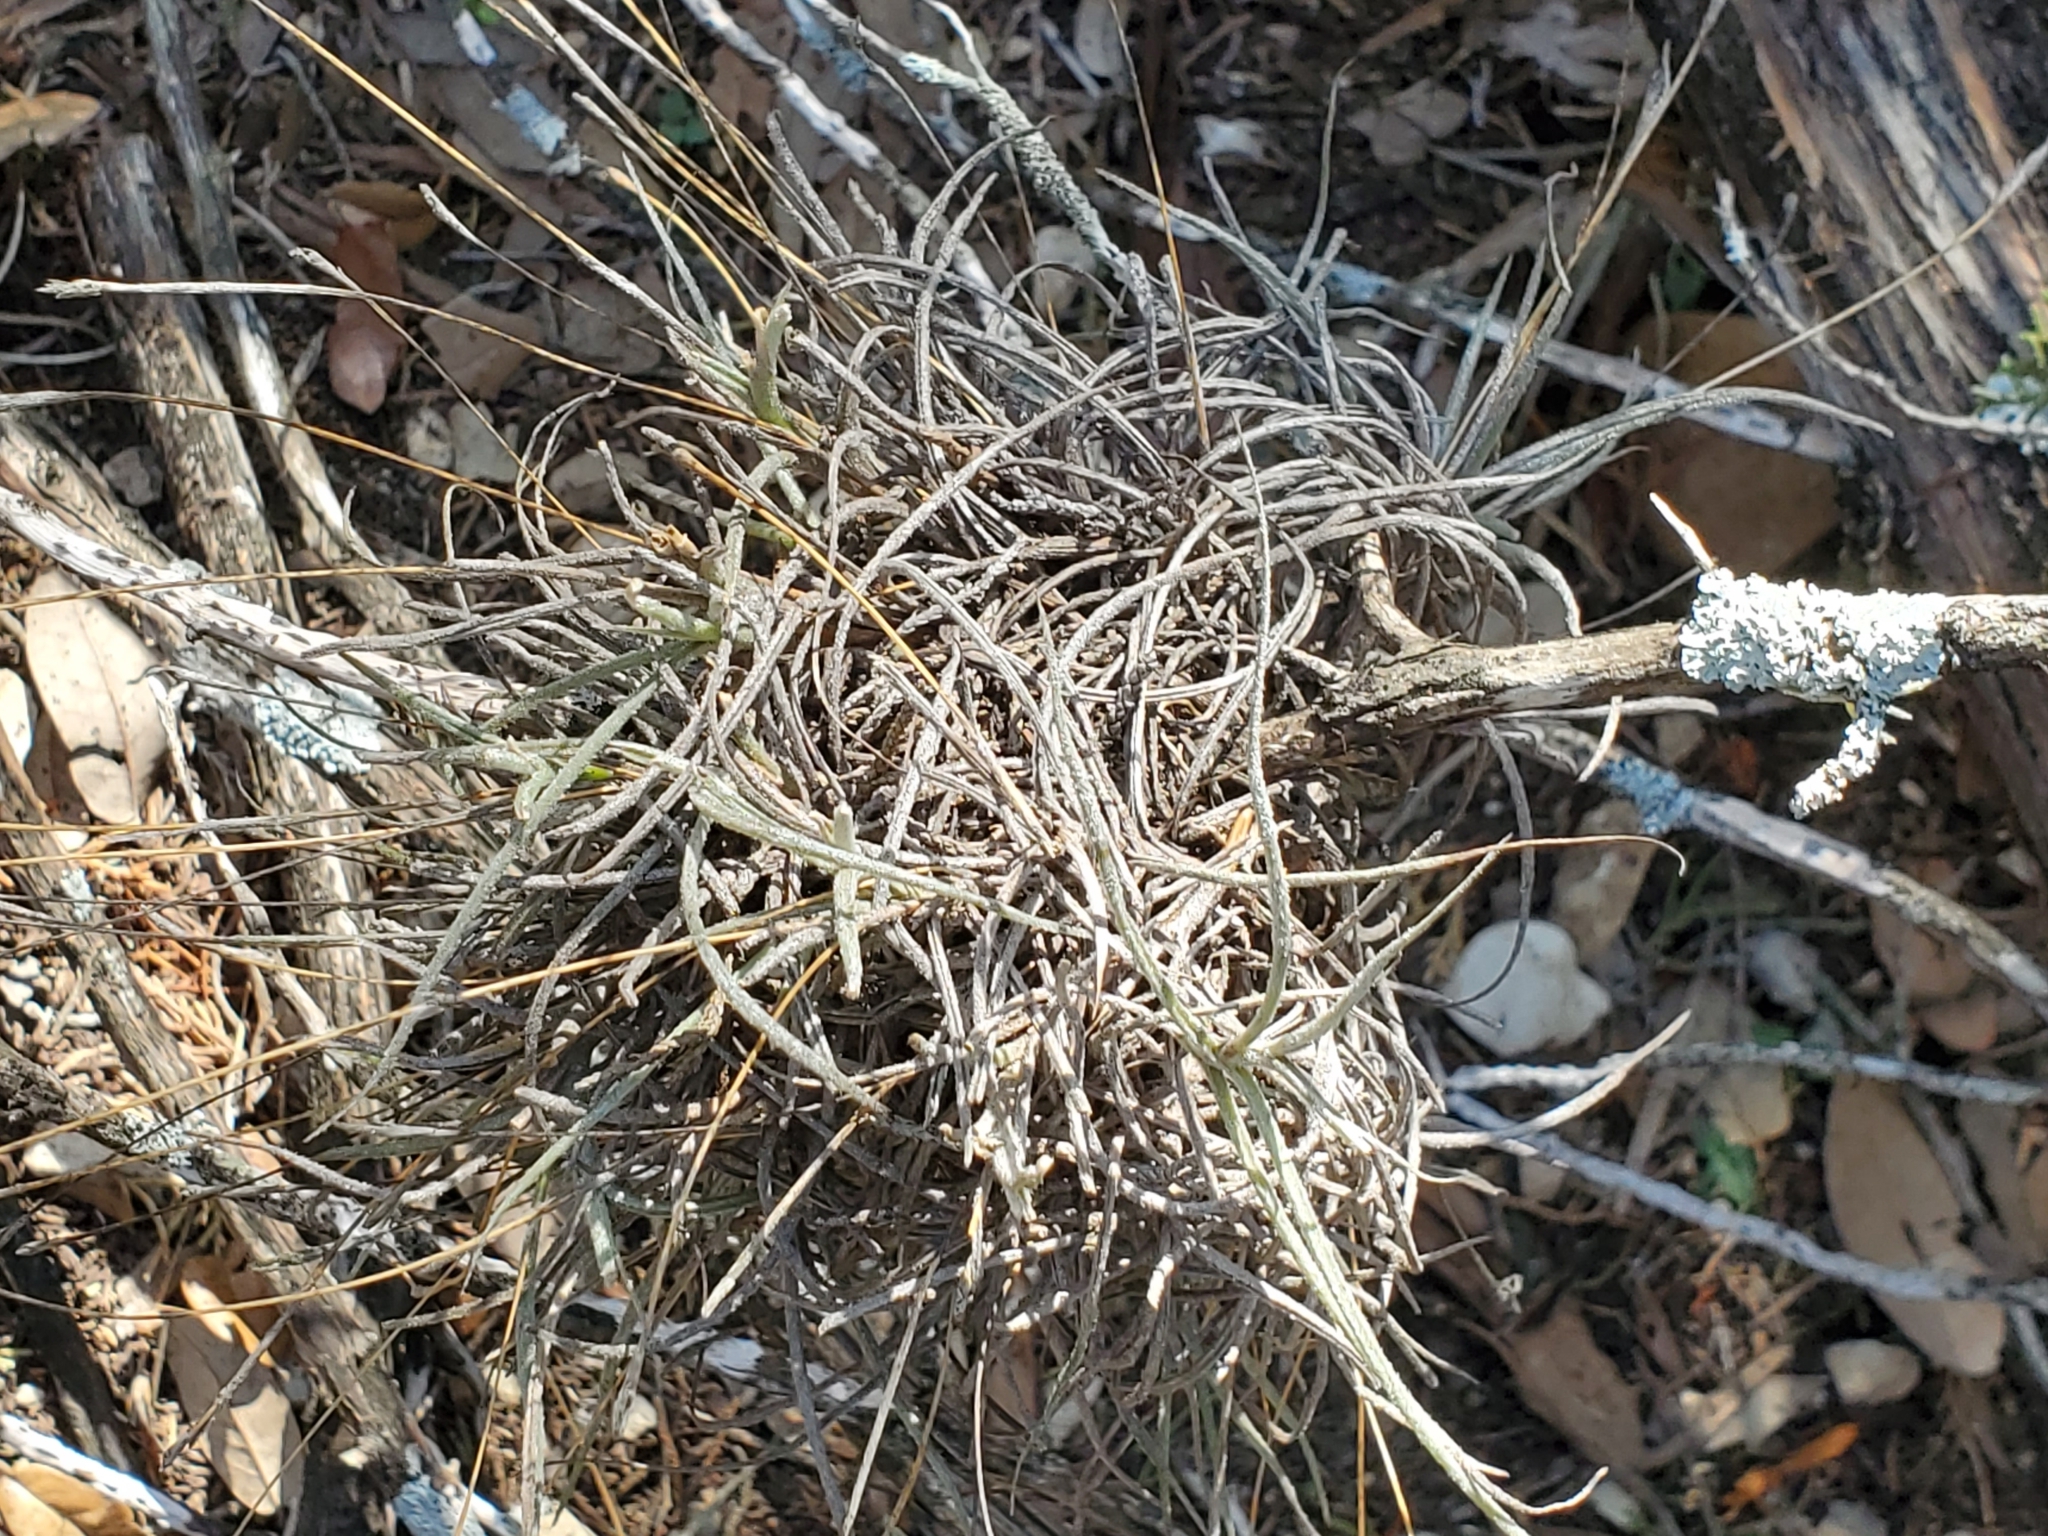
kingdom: Plantae
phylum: Tracheophyta
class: Liliopsida
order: Poales
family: Bromeliaceae
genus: Tillandsia
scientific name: Tillandsia recurvata
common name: Small ballmoss
